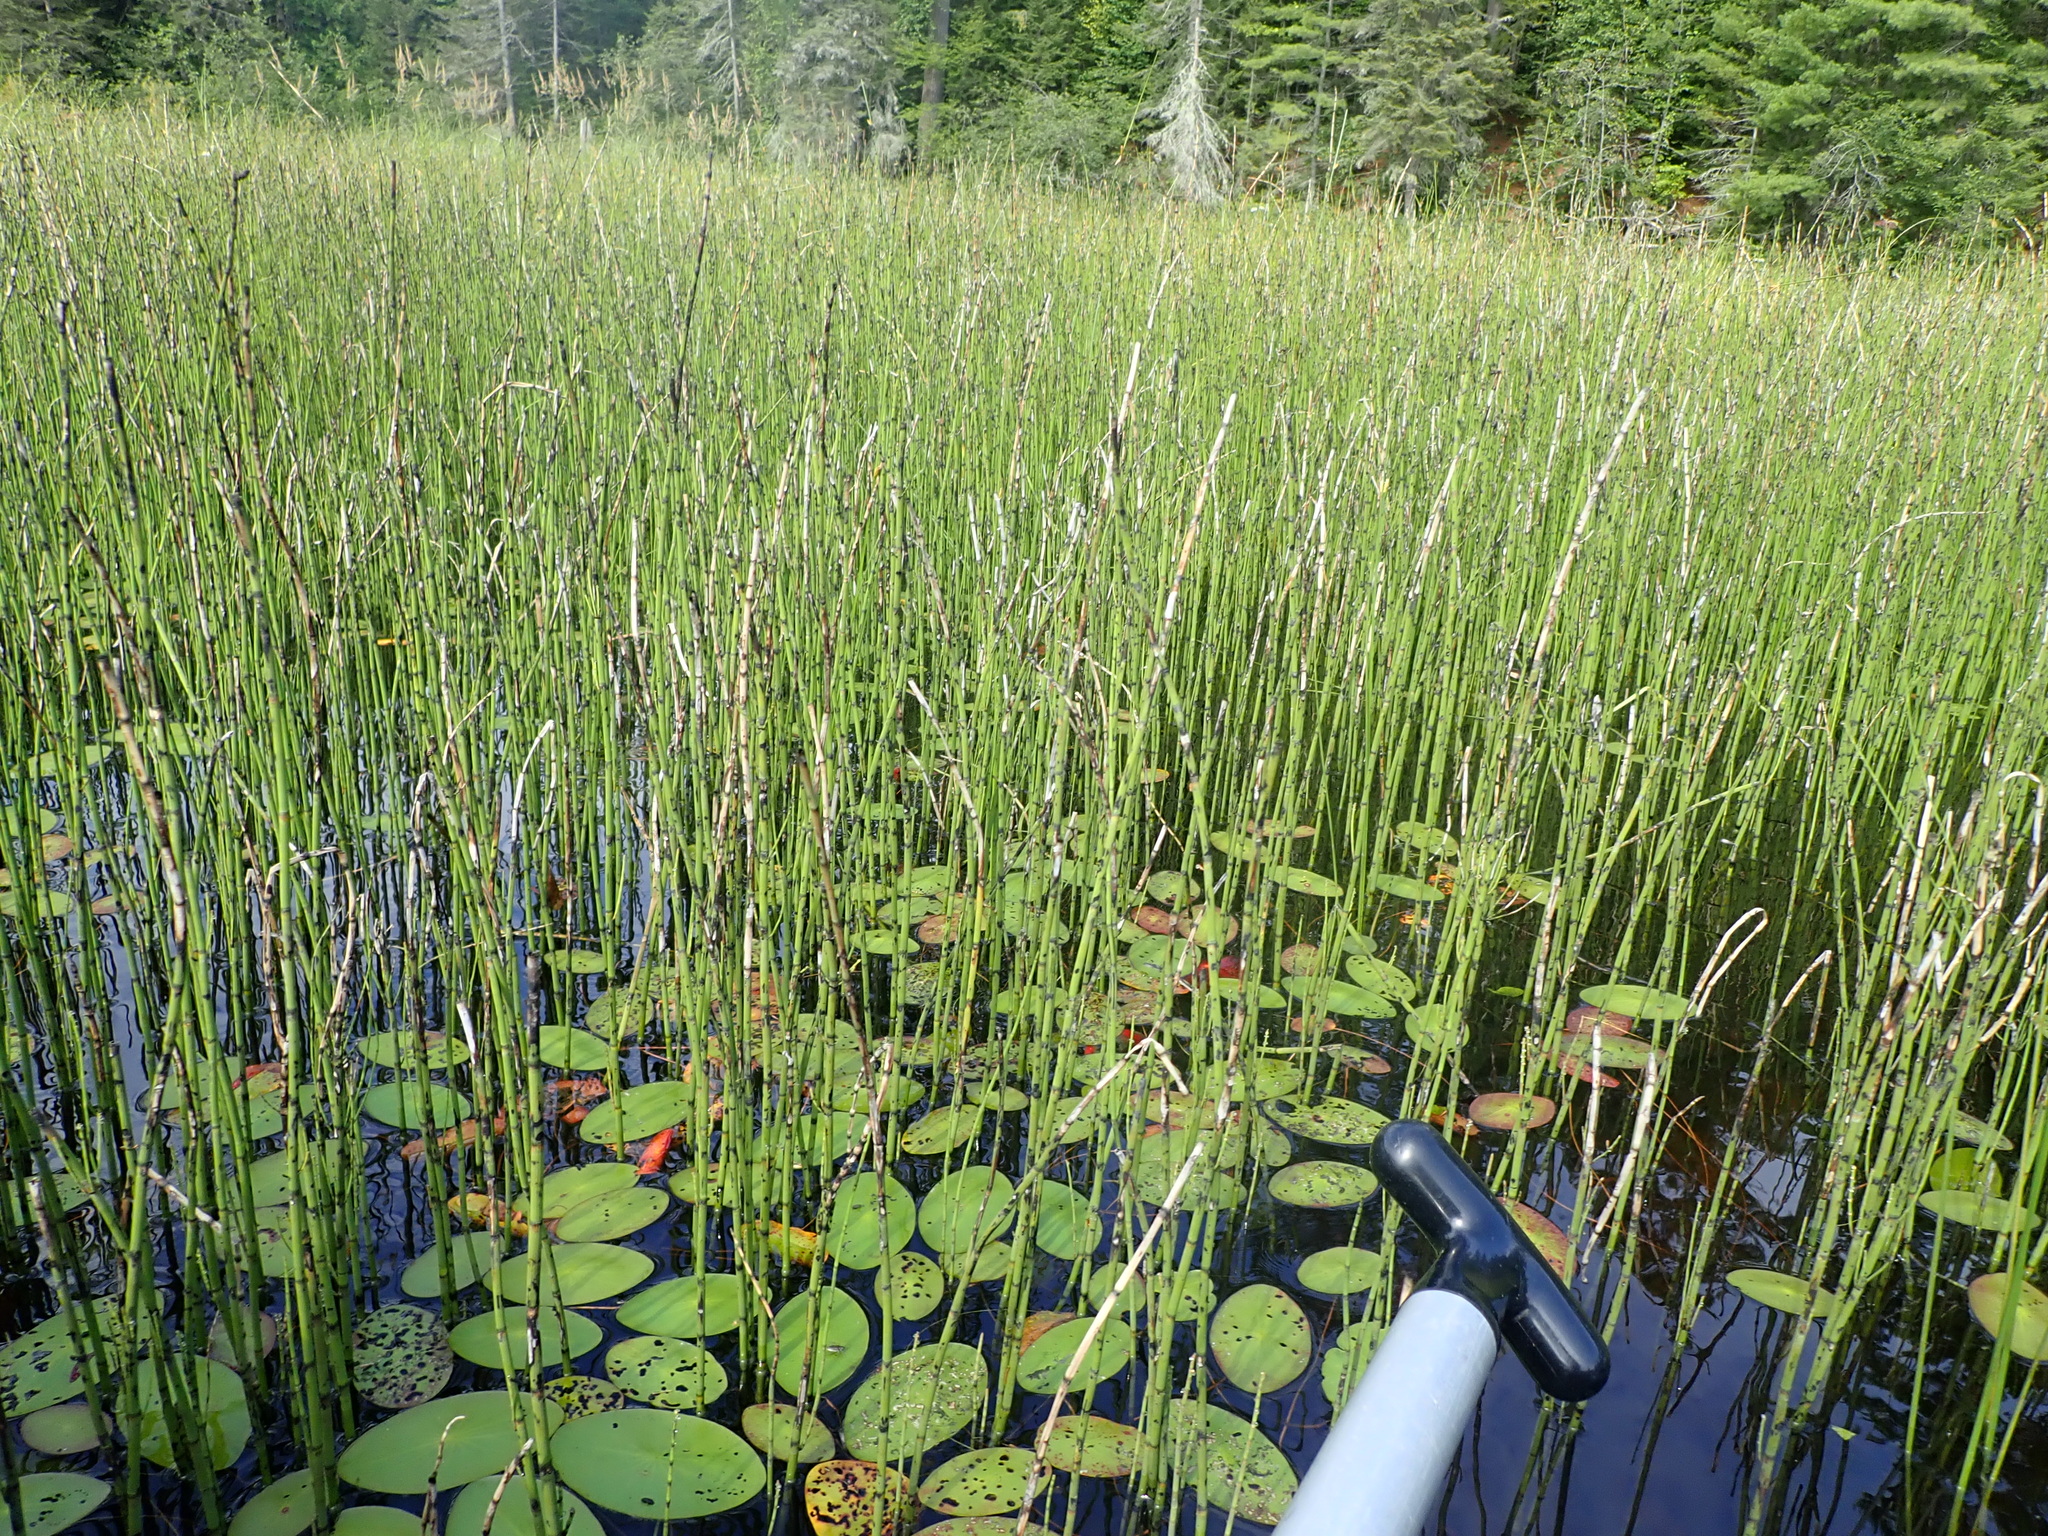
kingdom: Plantae
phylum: Tracheophyta
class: Polypodiopsida
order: Equisetales
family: Equisetaceae
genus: Equisetum
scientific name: Equisetum fluviatile
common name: Water horsetail
